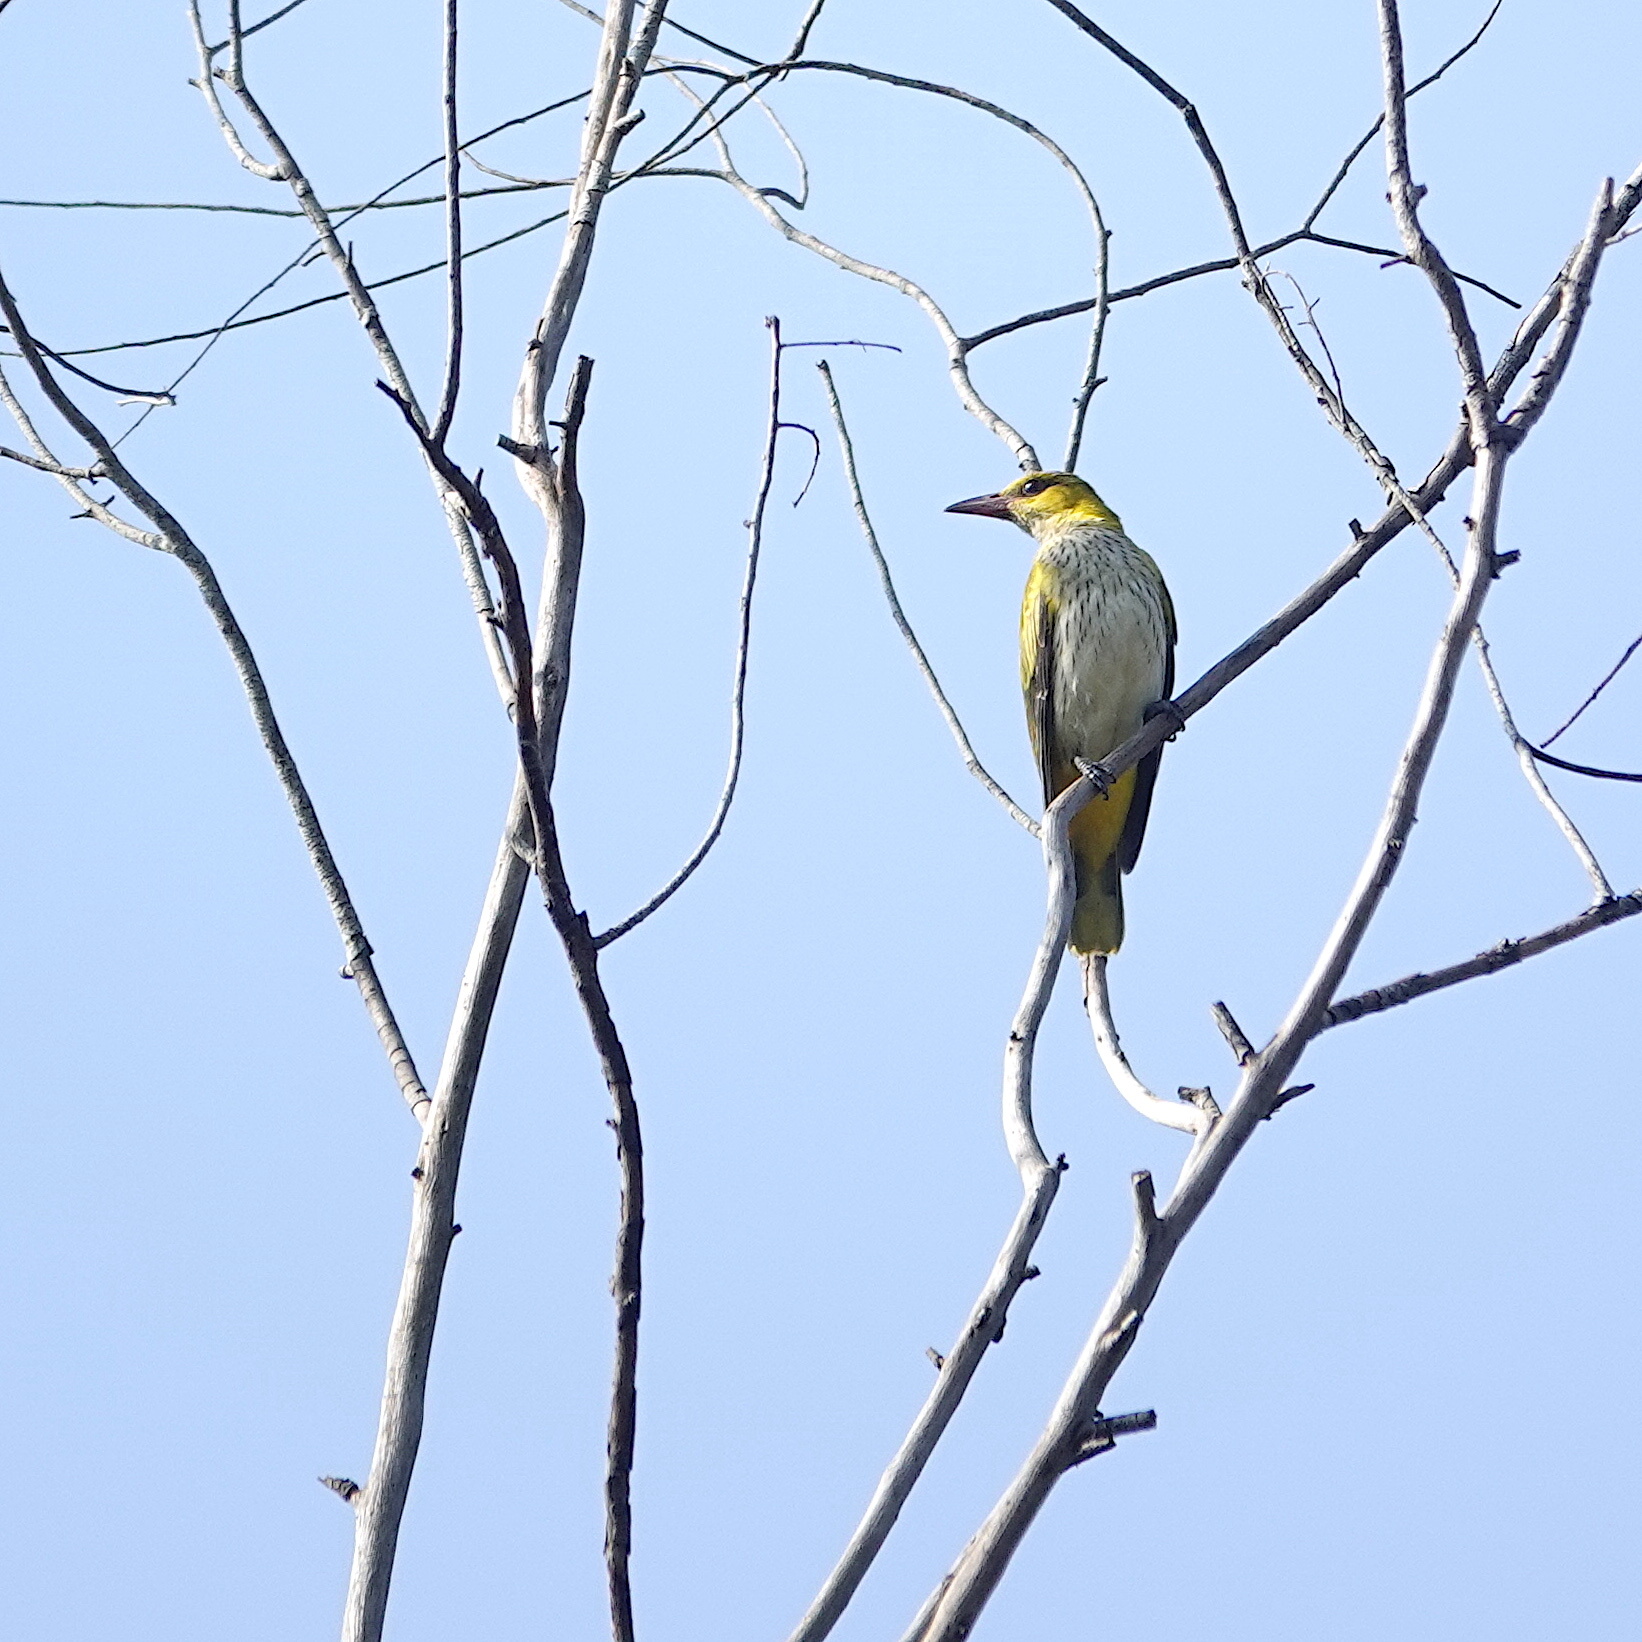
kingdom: Animalia
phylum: Chordata
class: Aves
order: Passeriformes
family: Oriolidae
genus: Oriolus
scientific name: Oriolus chinensis
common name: Black-naped oriole
